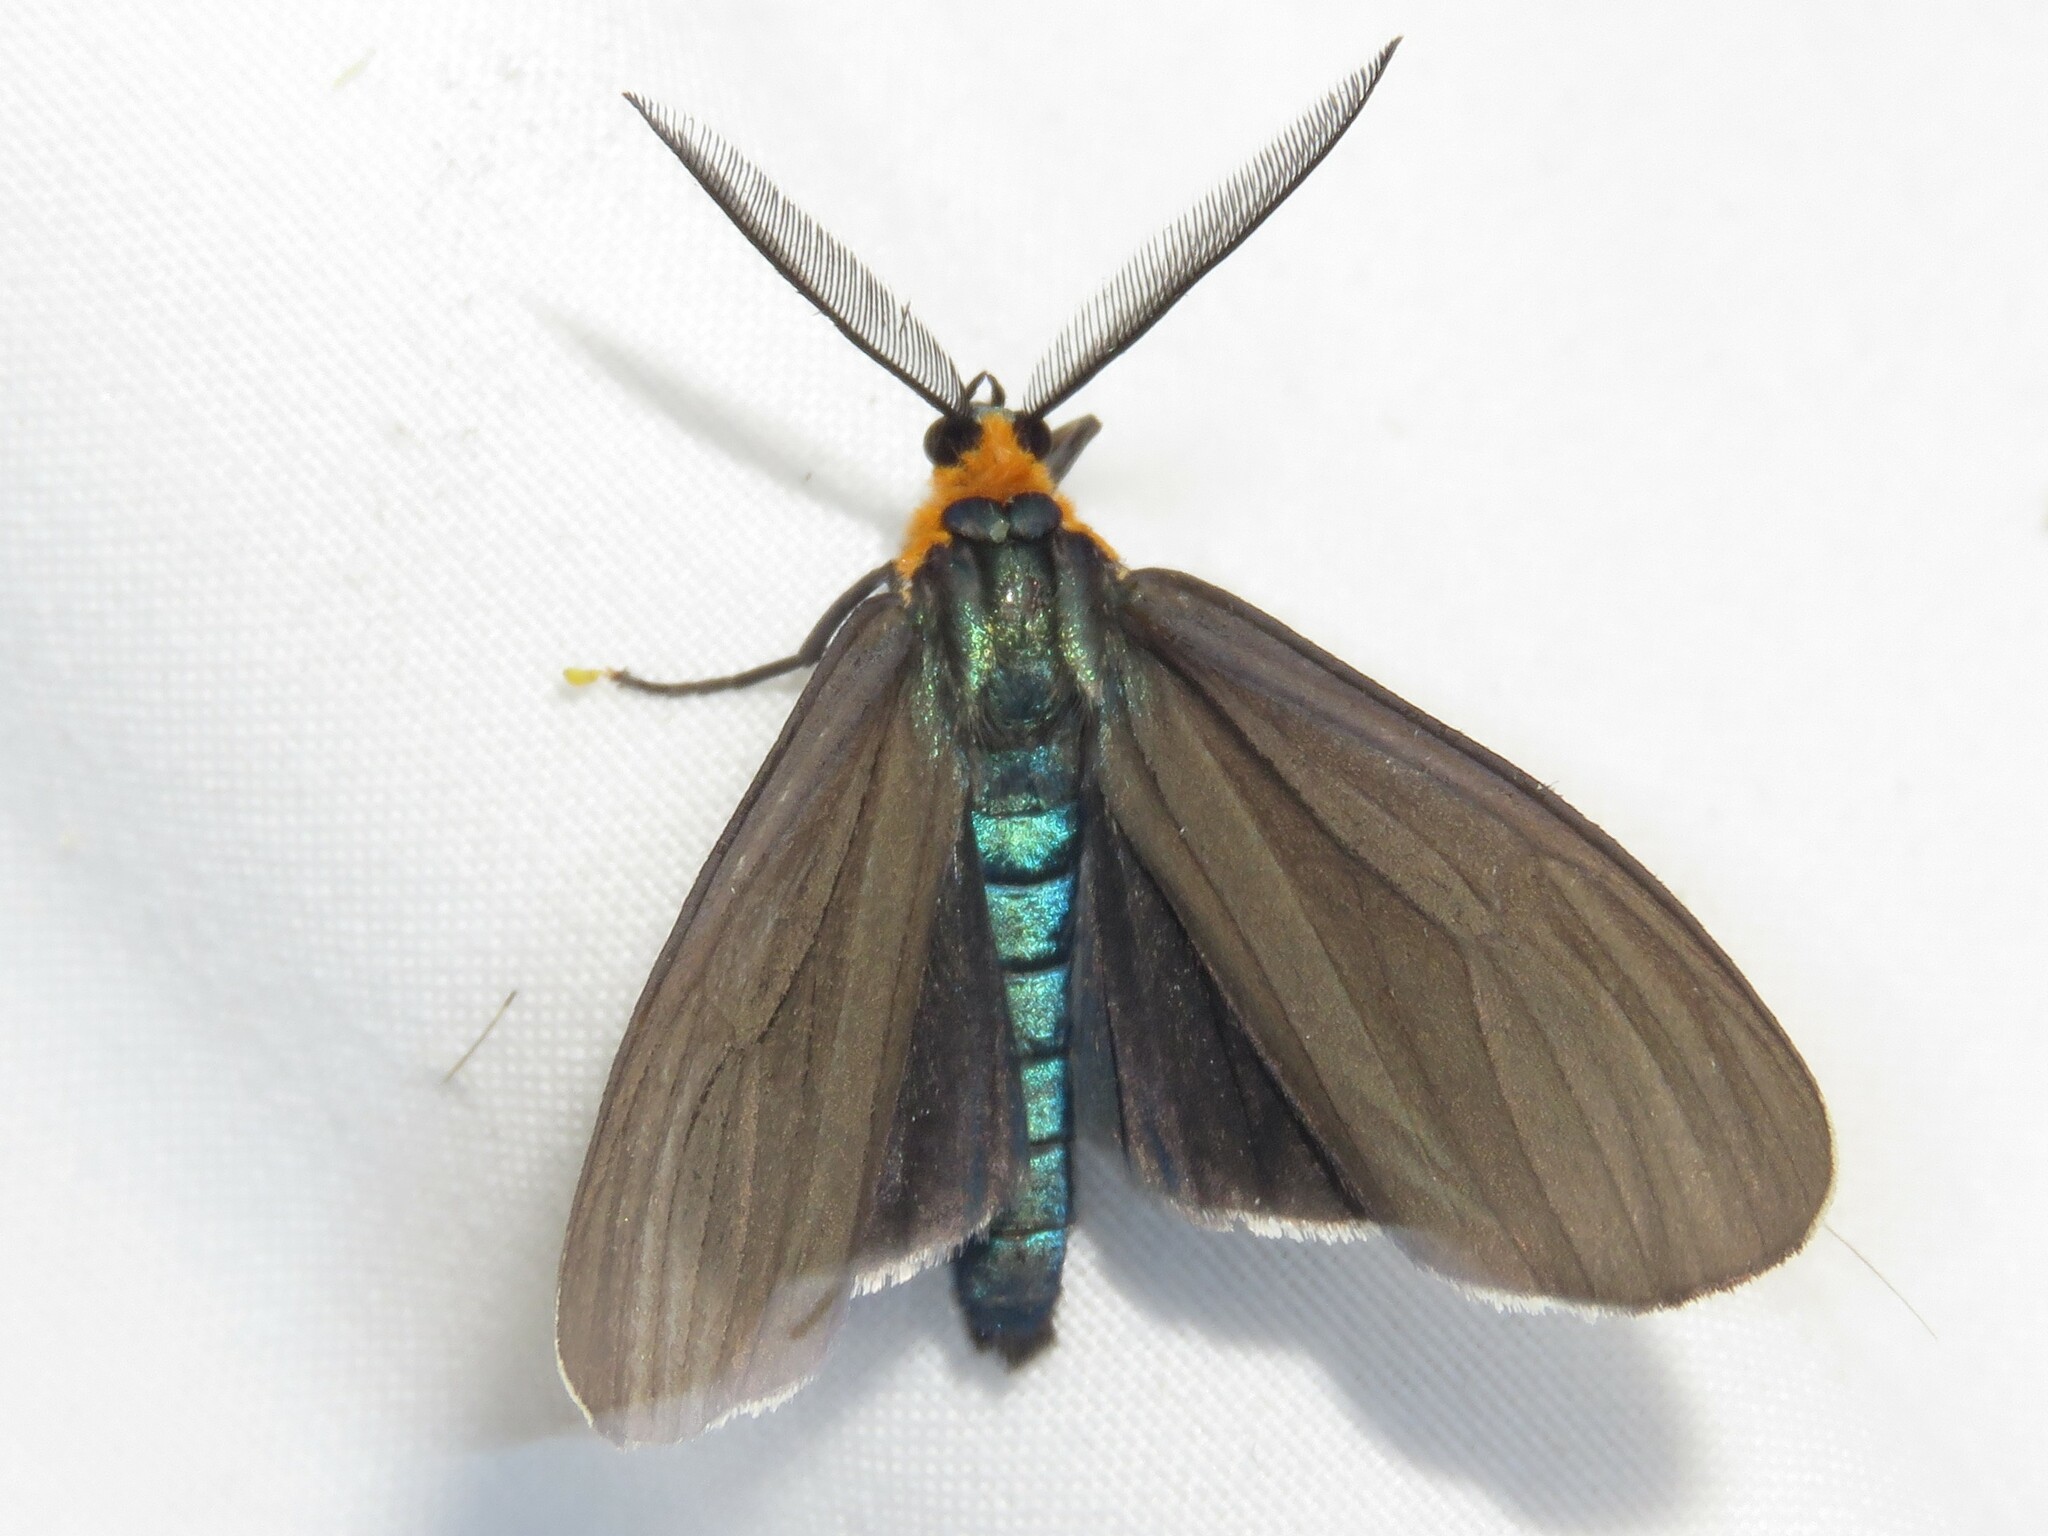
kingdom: Animalia
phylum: Arthropoda
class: Insecta
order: Lepidoptera
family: Erebidae
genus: Ctenucha
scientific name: Ctenucha virginica
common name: Virginia ctenucha moth
